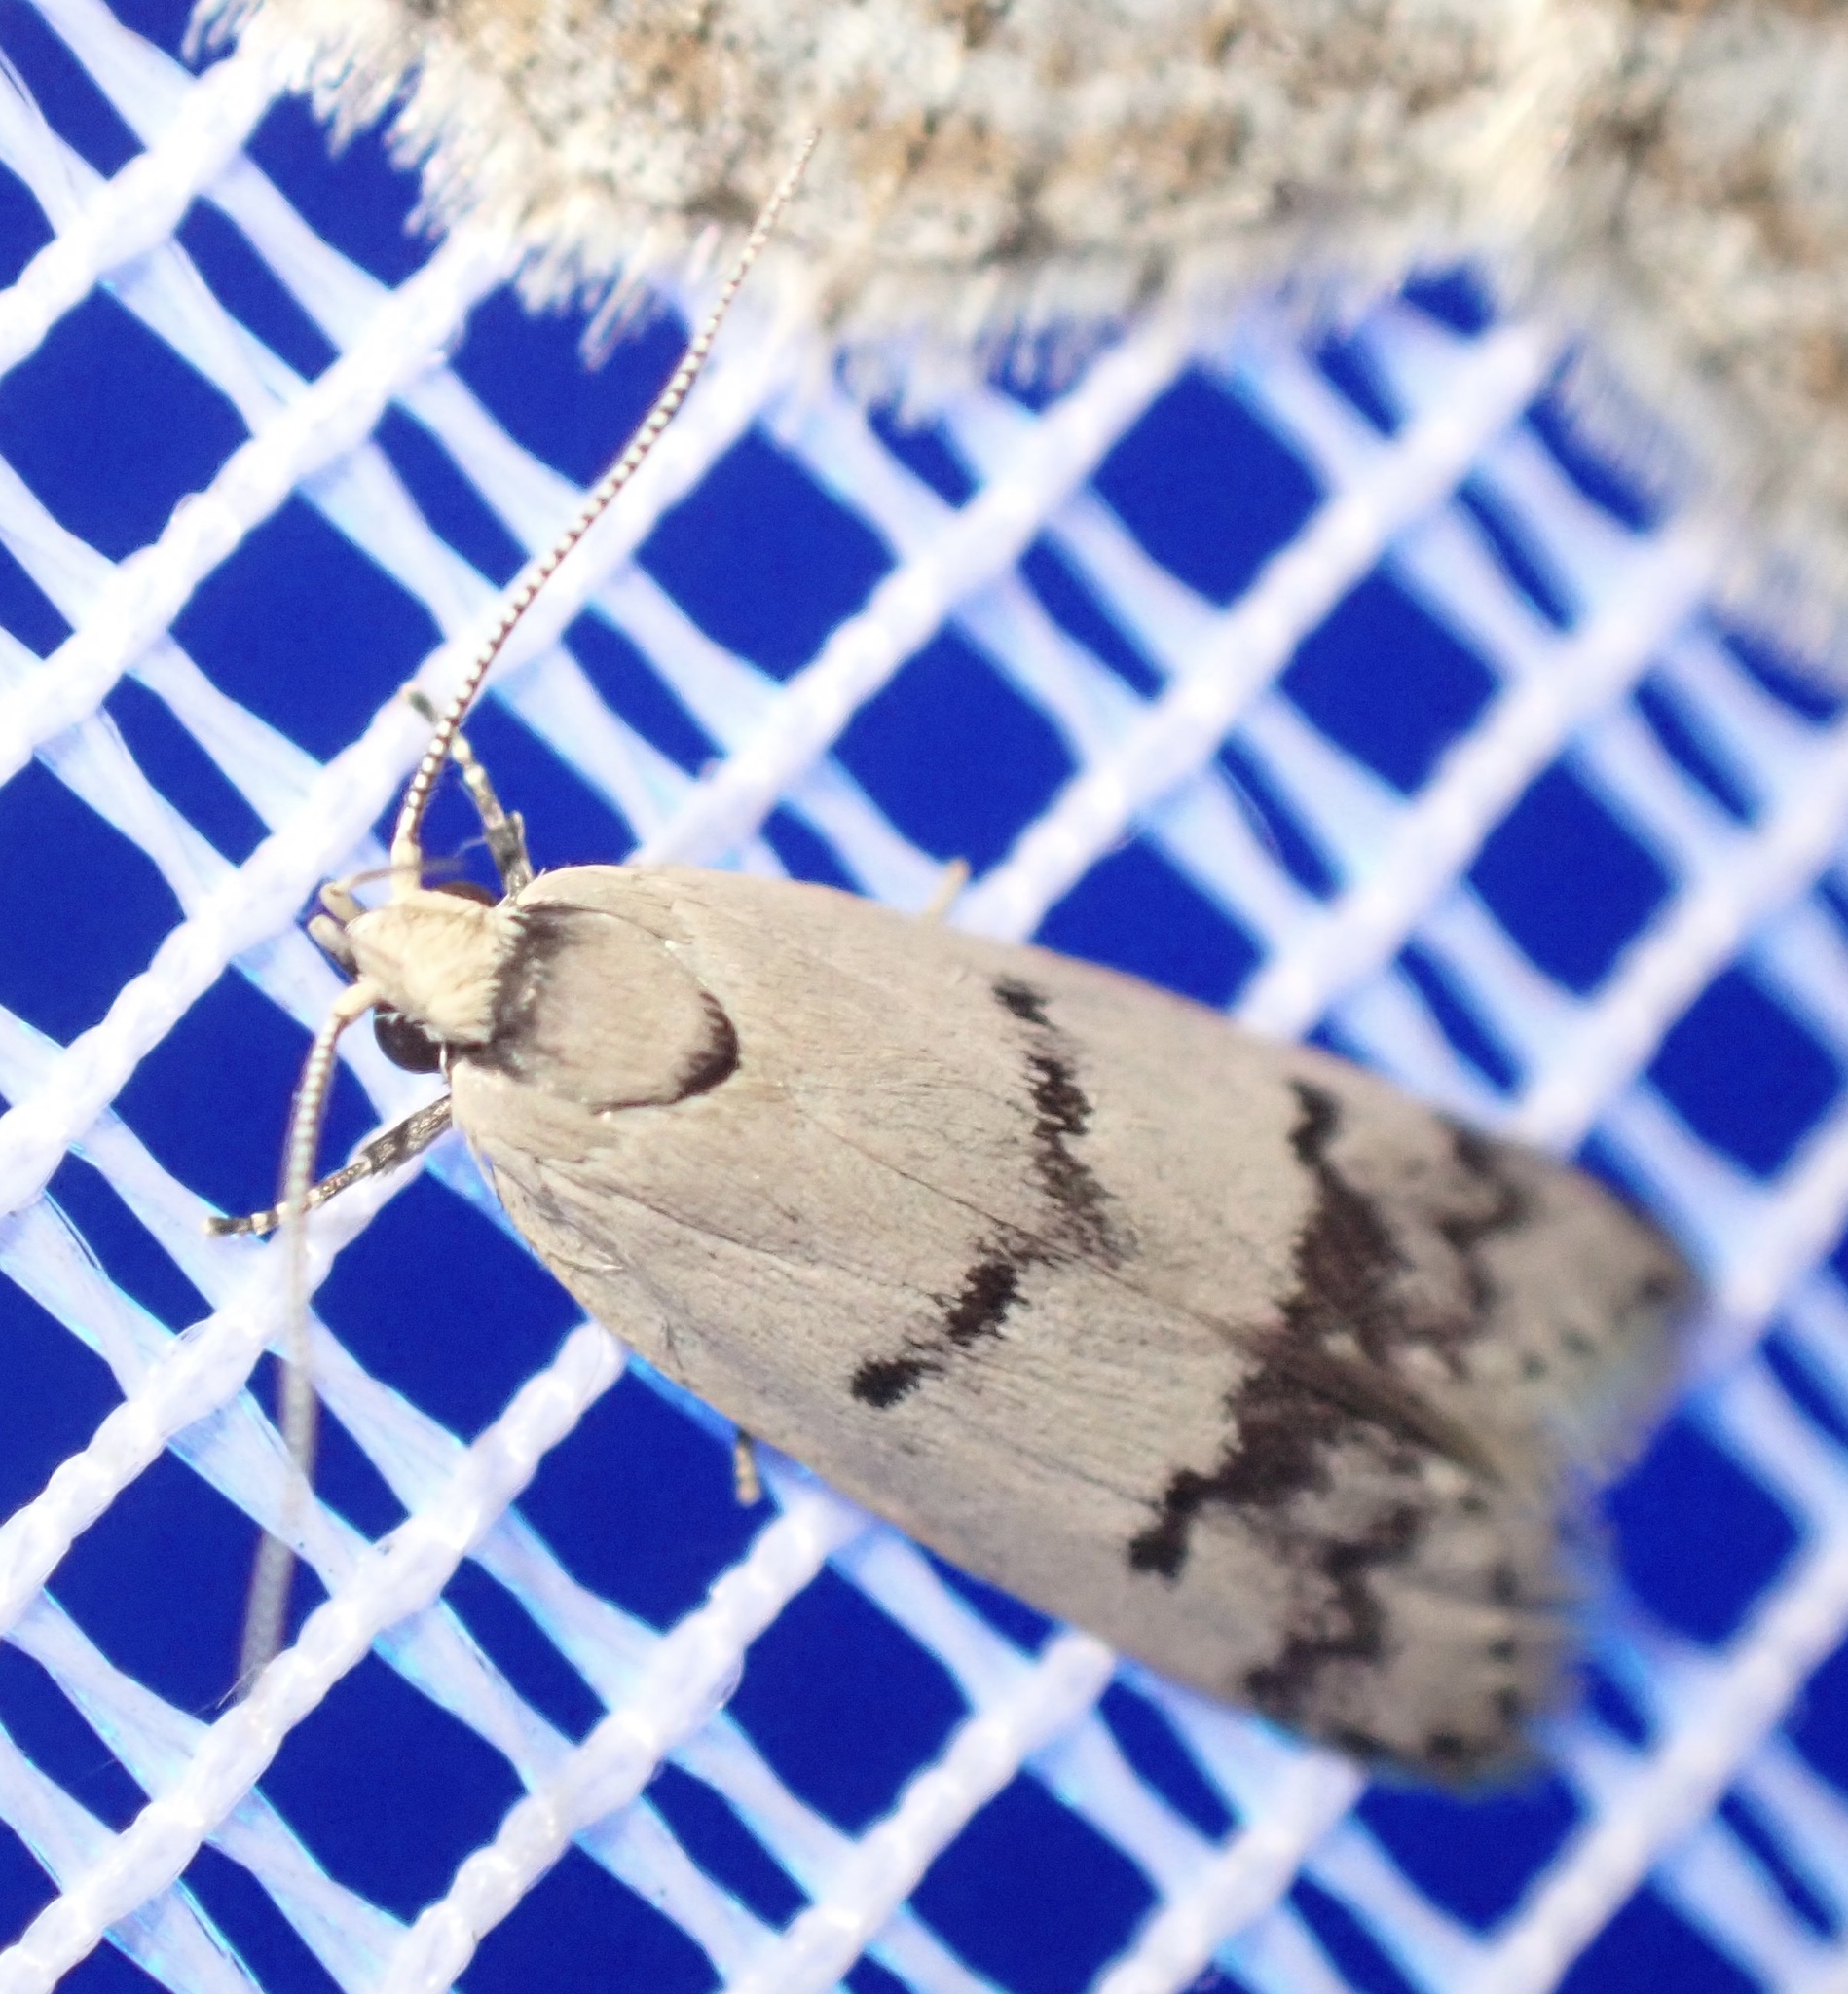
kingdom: Animalia
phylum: Arthropoda
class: Insecta
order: Lepidoptera
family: Oecophoridae
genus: Compsotropha
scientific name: Compsotropha strophiella
